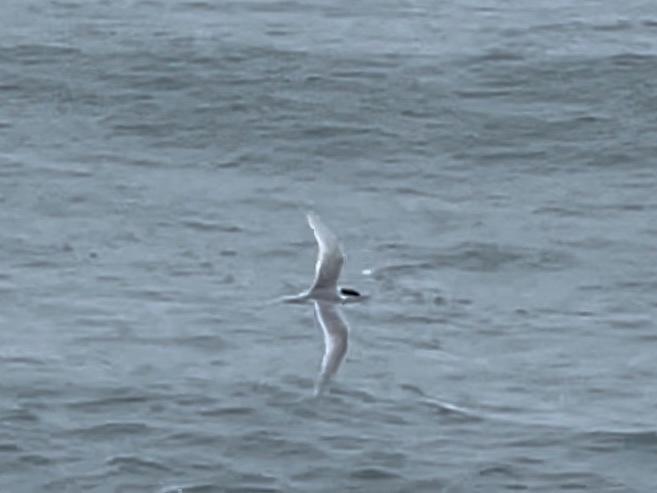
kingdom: Animalia
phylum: Chordata
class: Aves
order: Charadriiformes
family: Laridae
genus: Sterna
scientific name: Sterna striata
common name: White-fronted tern
